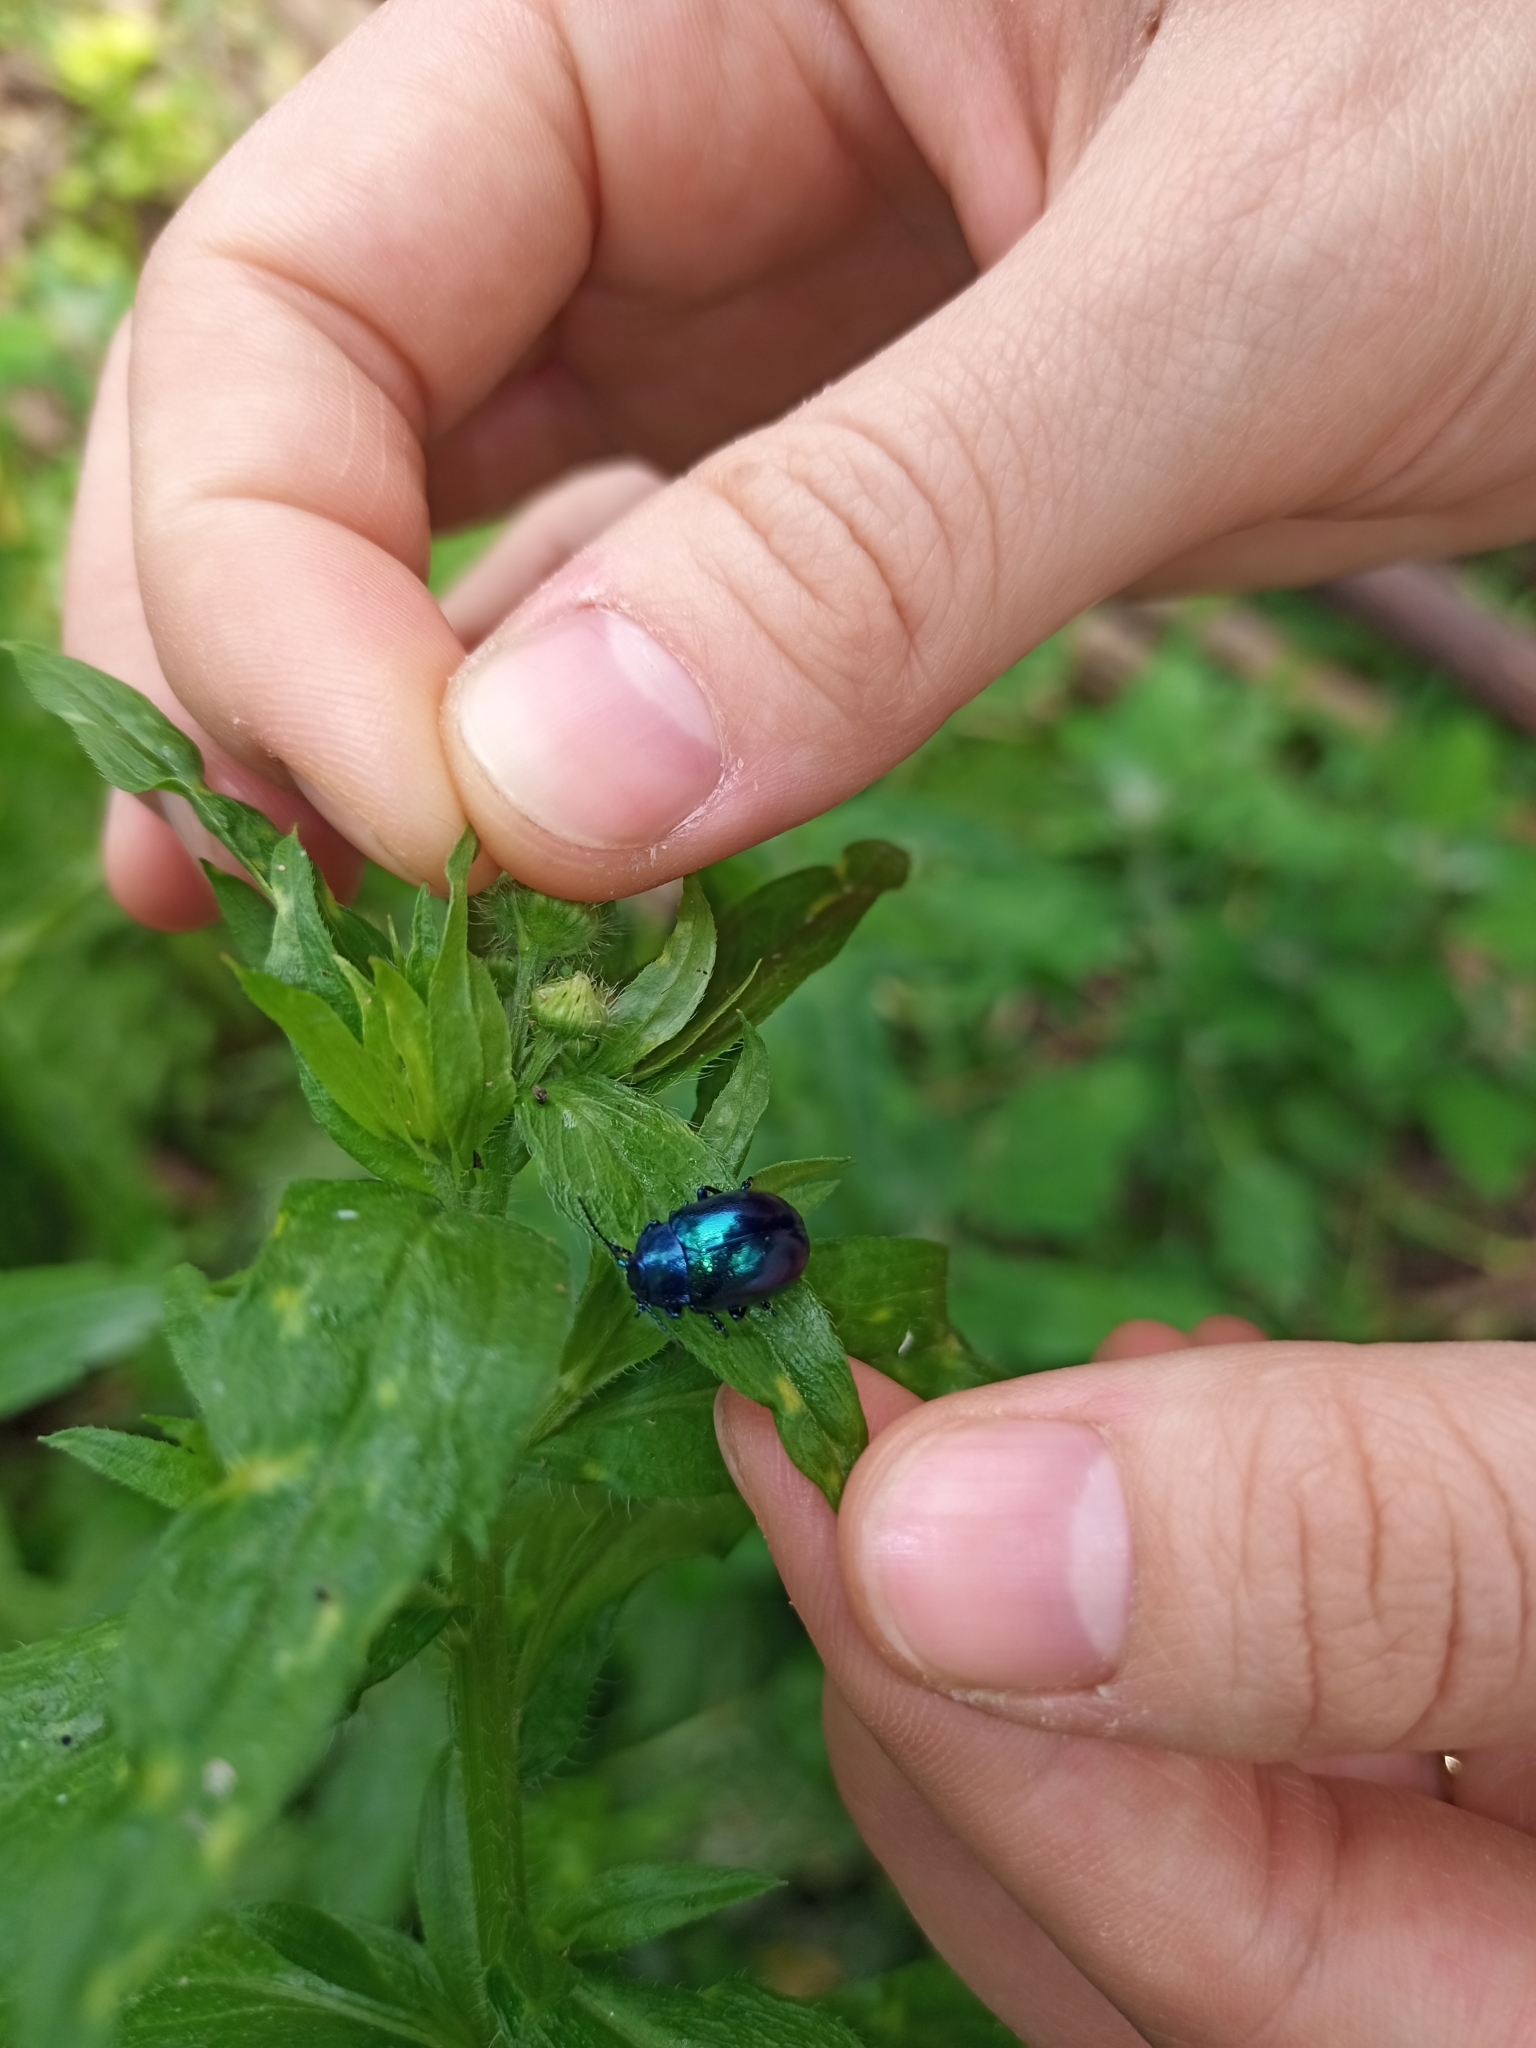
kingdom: Animalia
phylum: Arthropoda
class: Insecta
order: Coleoptera
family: Chrysomelidae
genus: Chrysolina
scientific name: Chrysolina coerulans
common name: Blue mint beetle
